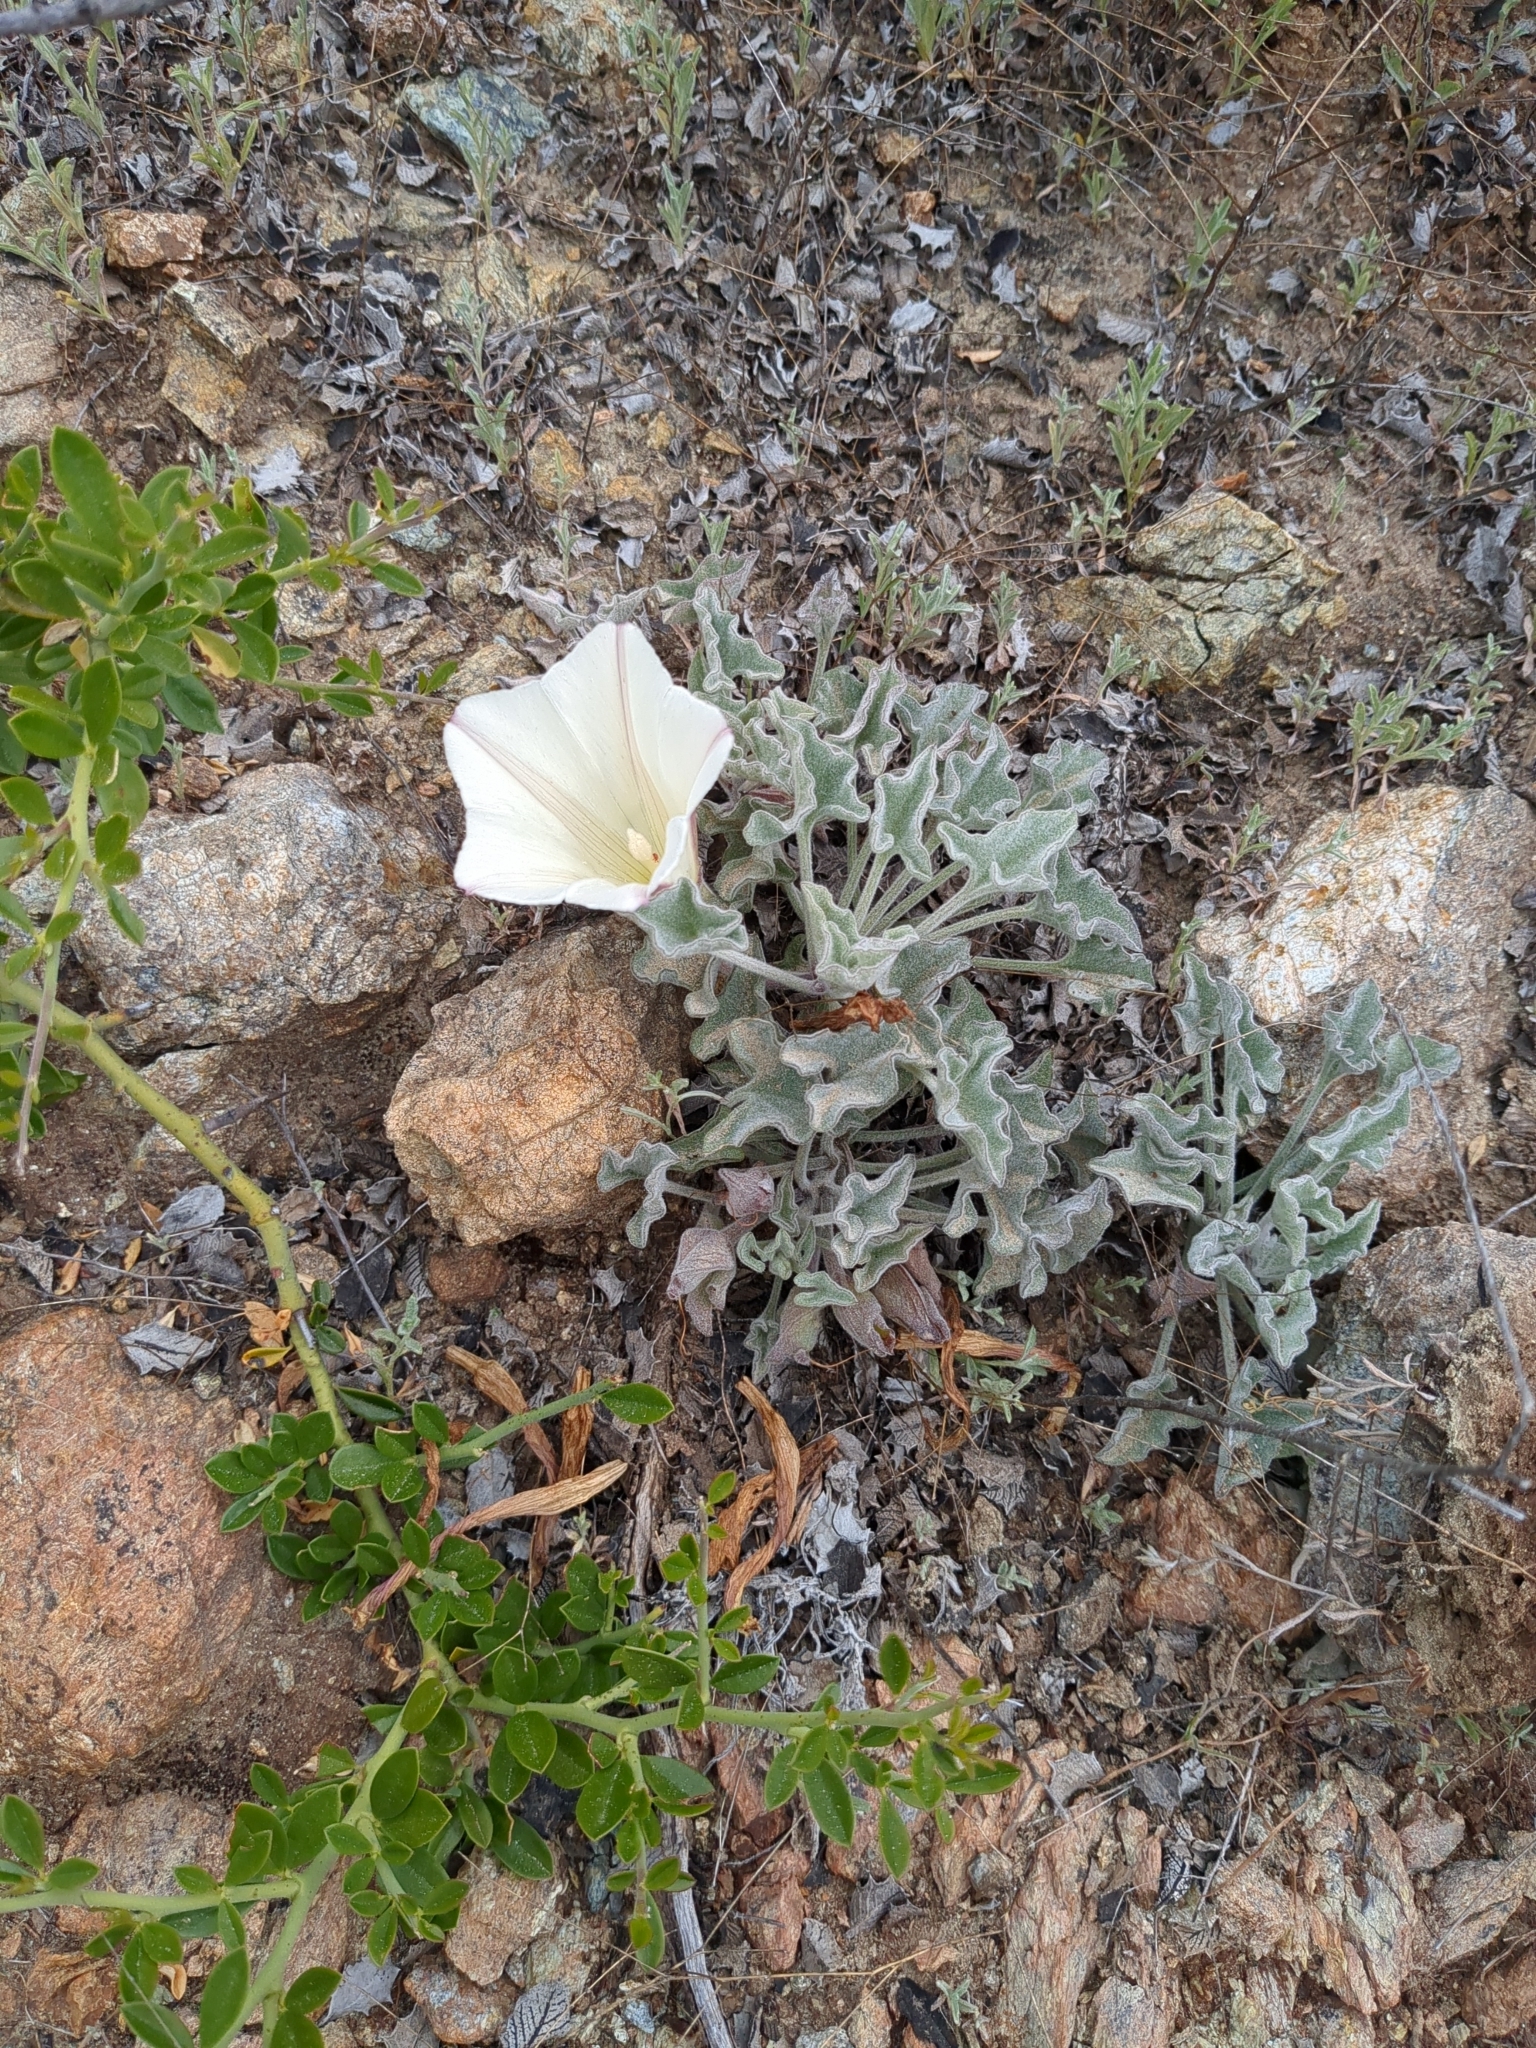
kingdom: Plantae
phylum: Tracheophyta
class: Magnoliopsida
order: Solanales
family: Convolvulaceae
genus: Calystegia
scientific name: Calystegia collina
